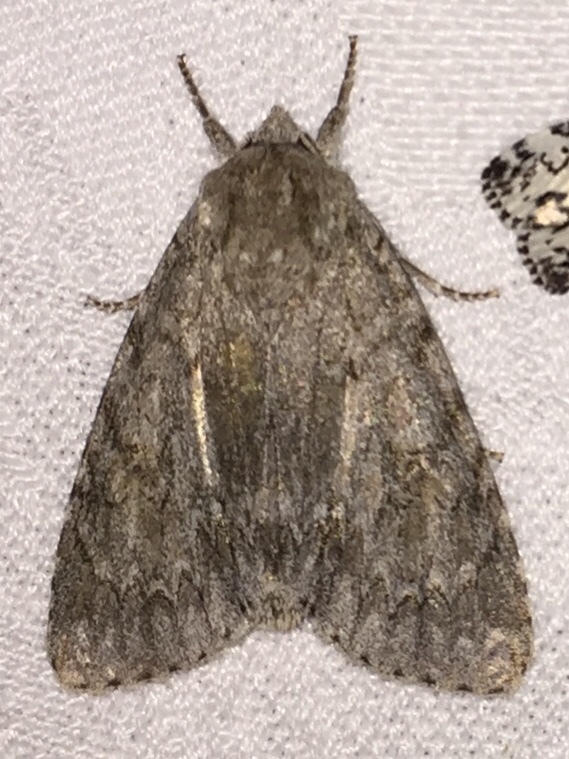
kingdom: Animalia
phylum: Arthropoda
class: Insecta
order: Lepidoptera
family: Noctuidae
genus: Acronicta
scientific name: Acronicta americana
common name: American dagger
